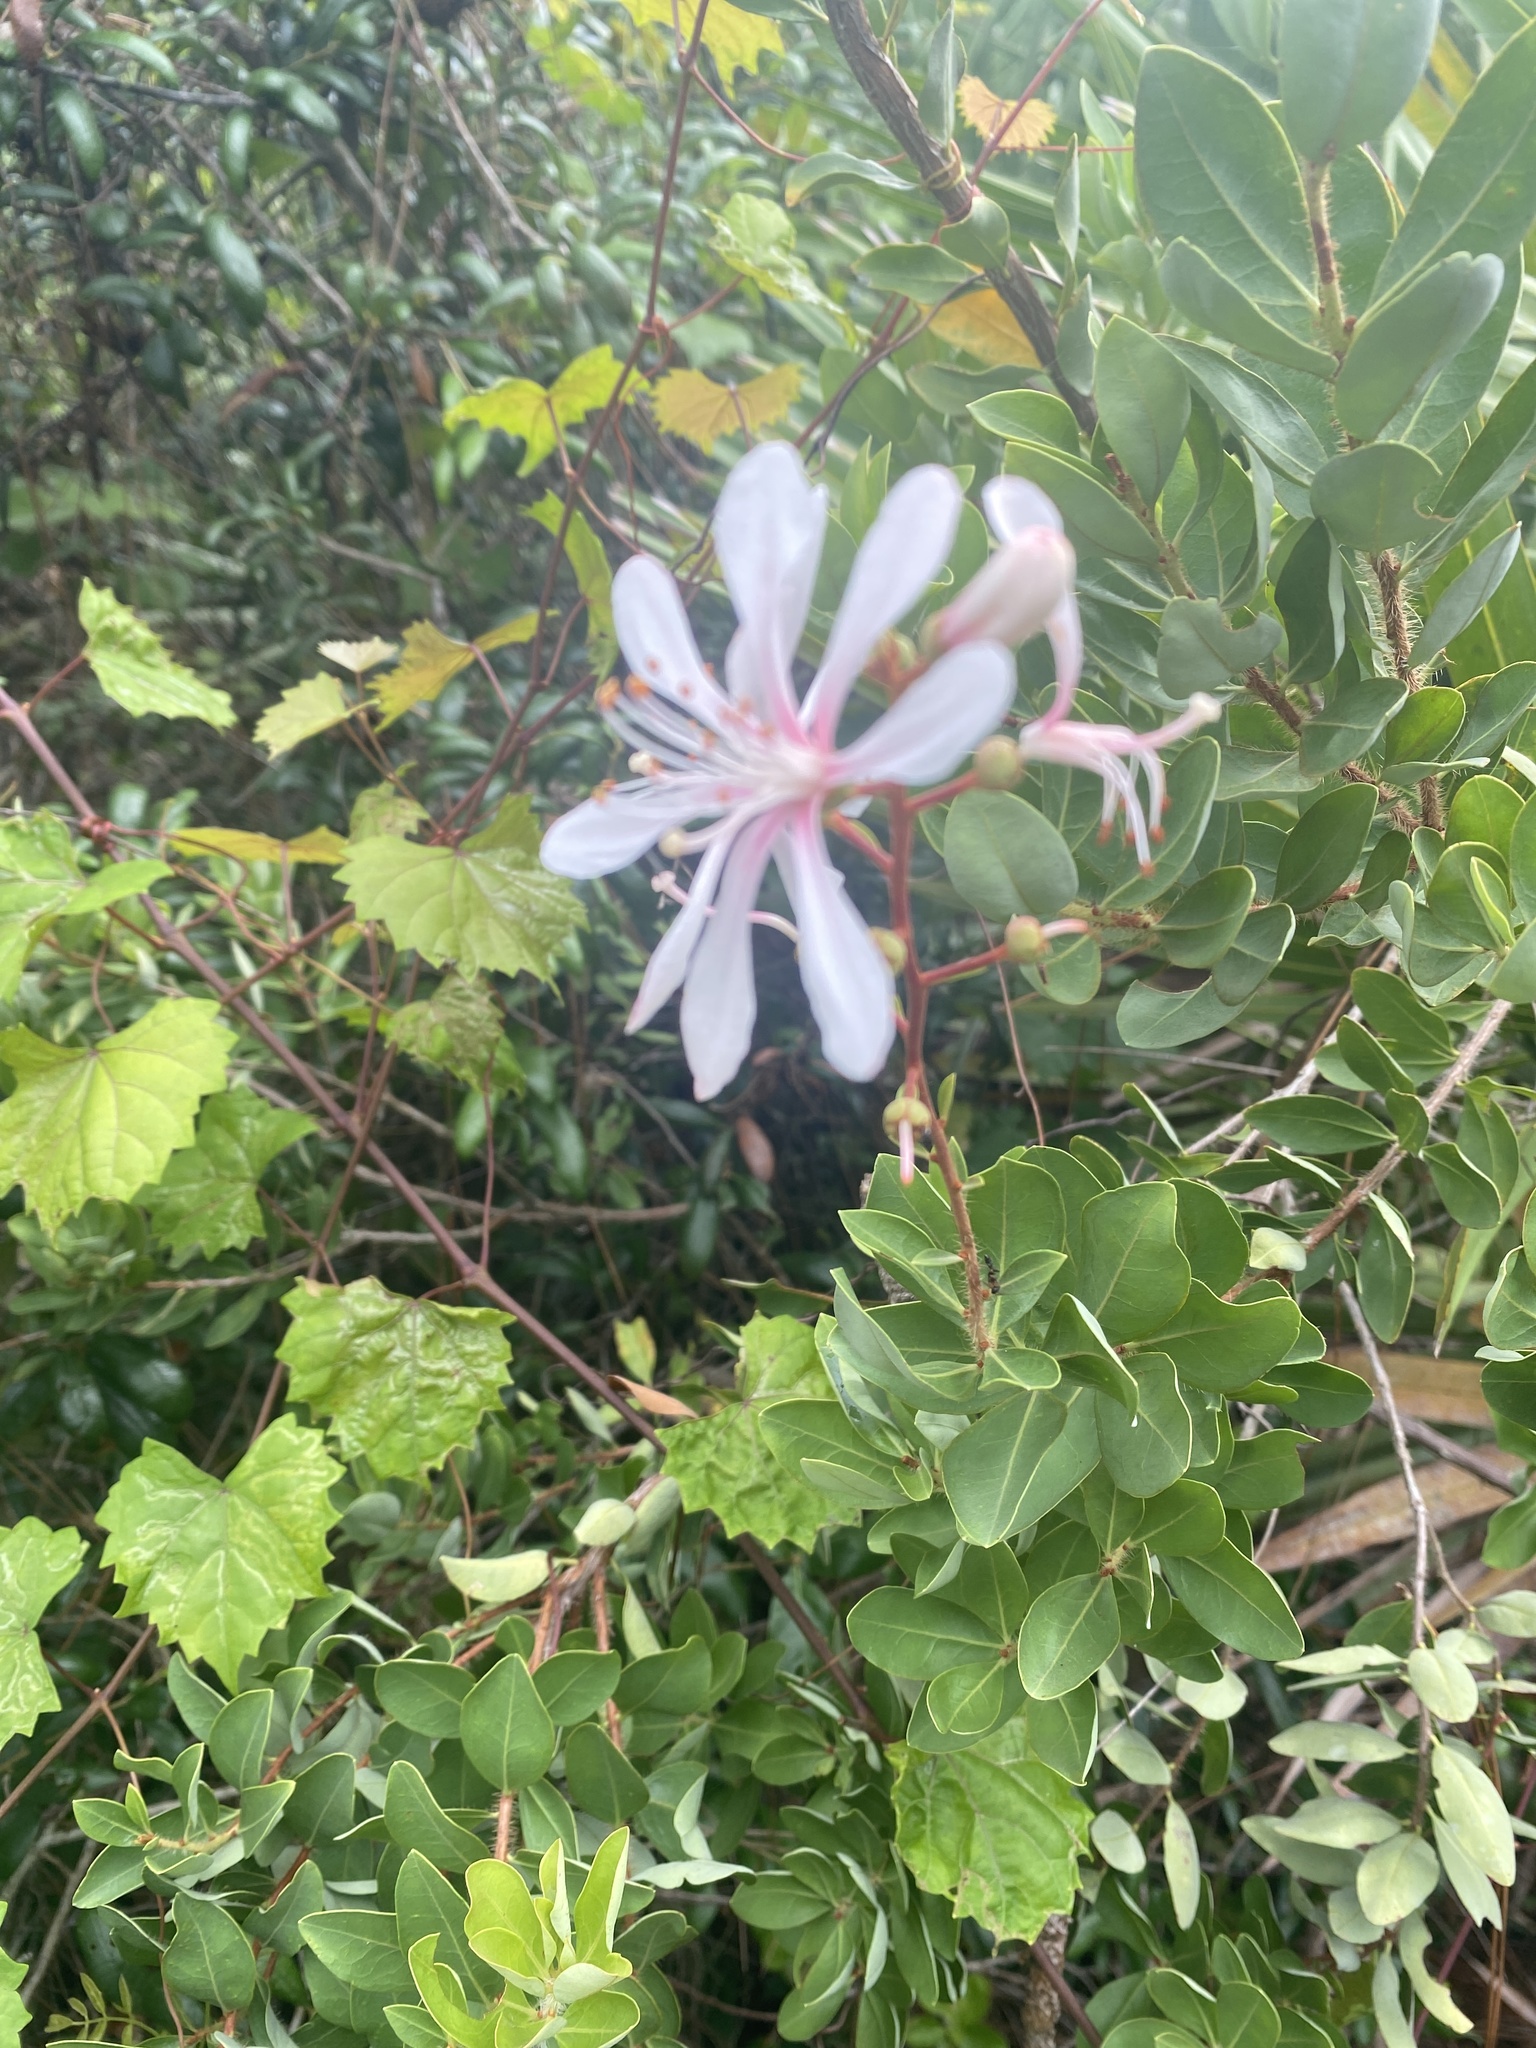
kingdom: Plantae
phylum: Tracheophyta
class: Magnoliopsida
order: Ericales
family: Ericaceae
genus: Bejaria
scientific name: Bejaria racemosa
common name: Tarflower
